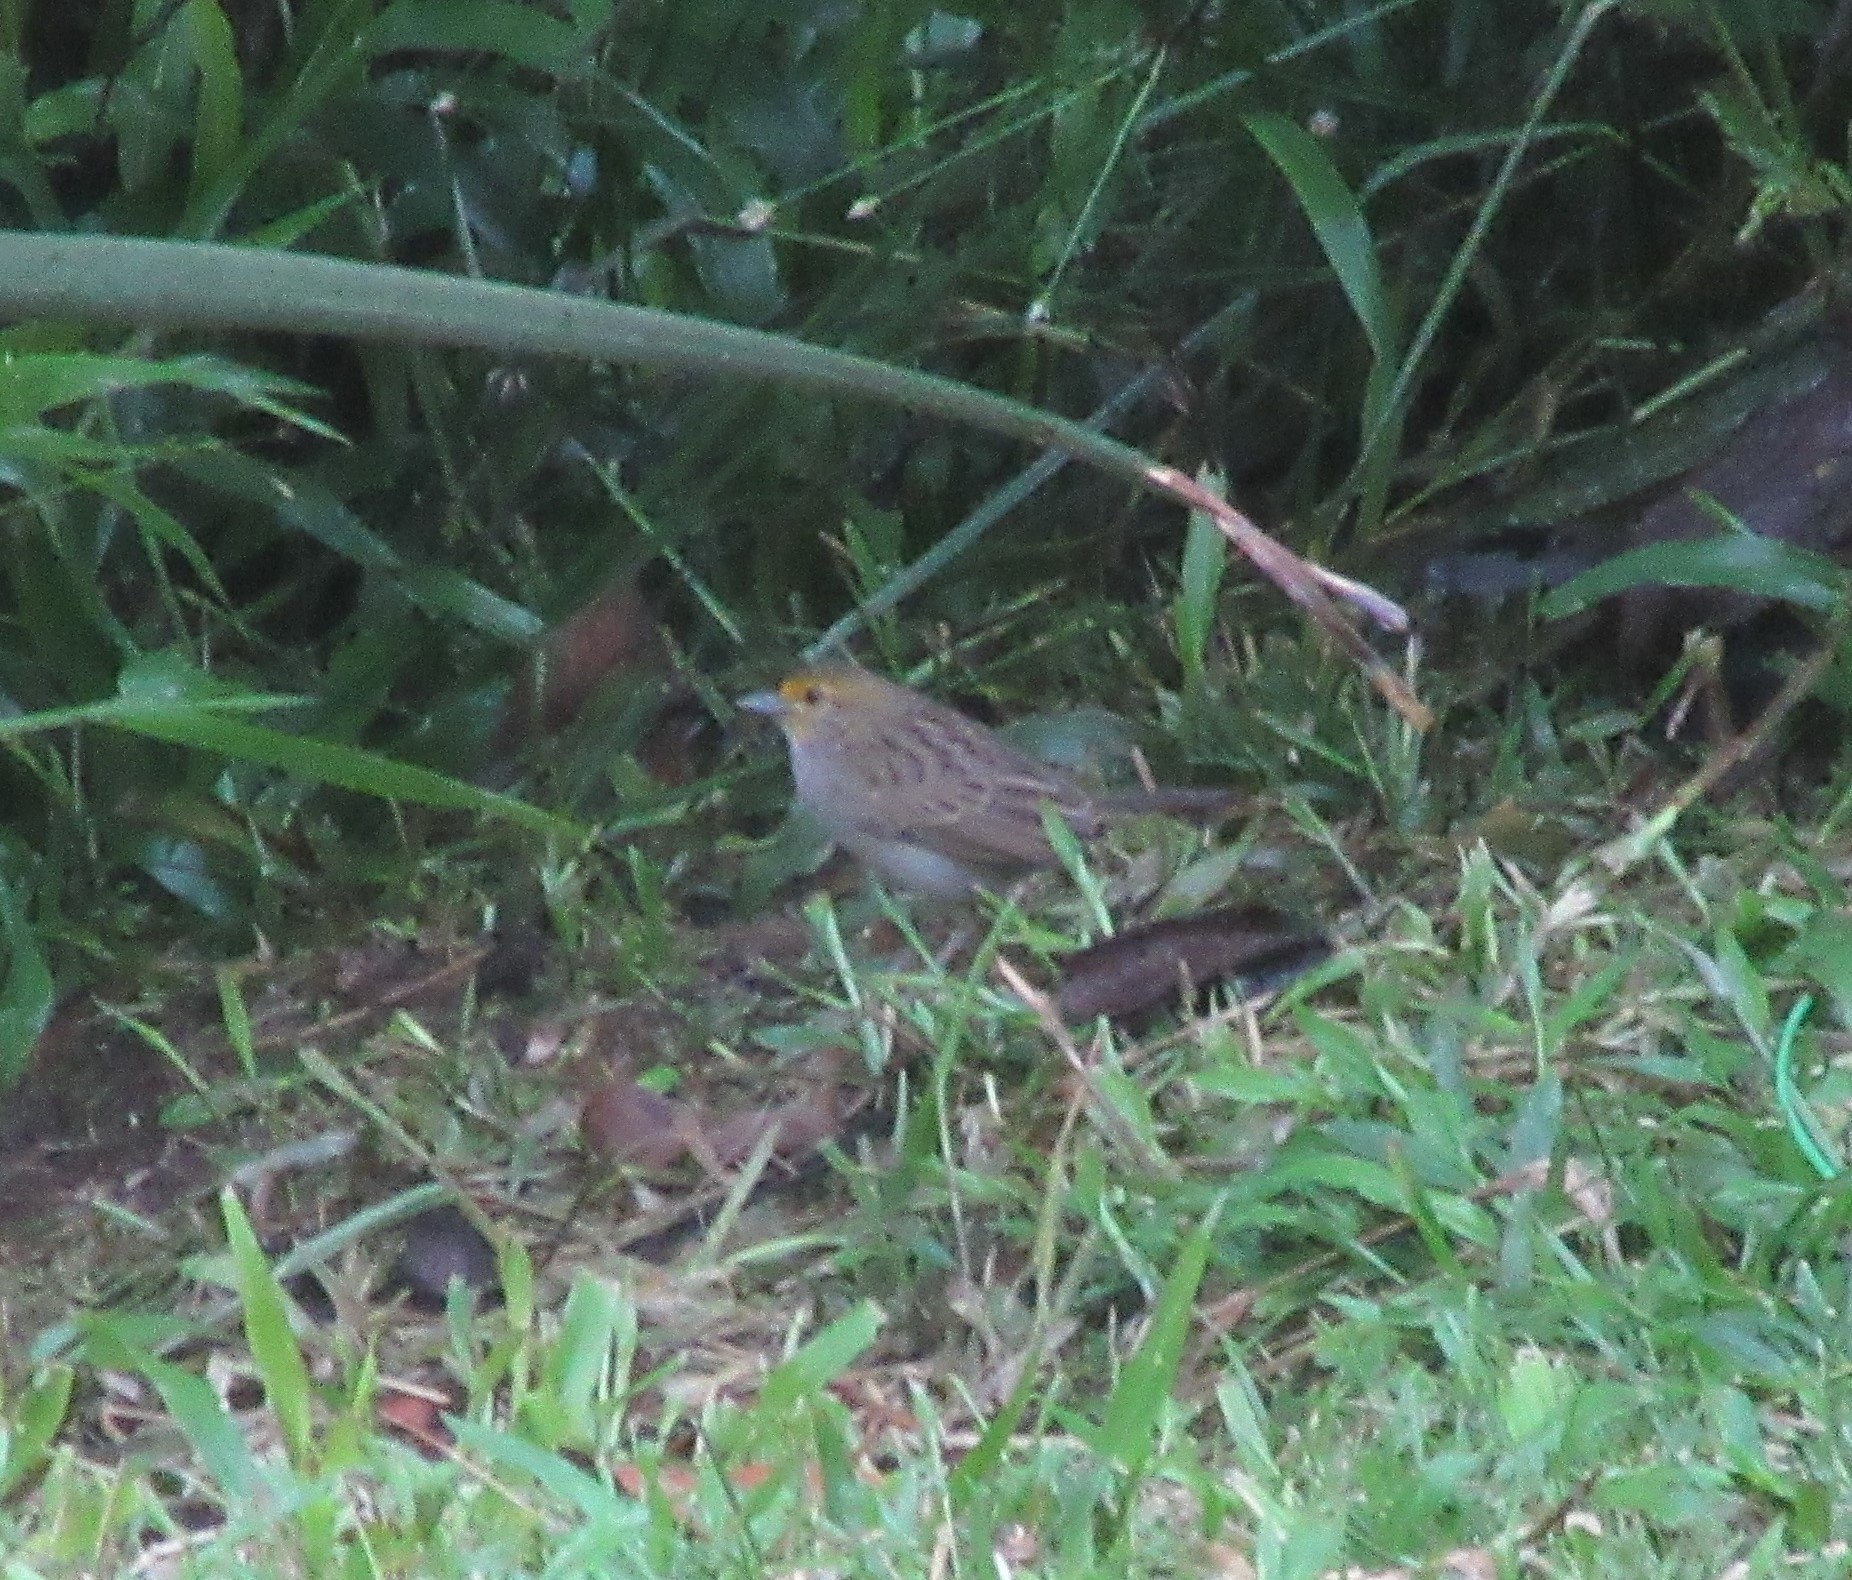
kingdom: Animalia
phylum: Chordata
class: Aves
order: Passeriformes
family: Passerellidae
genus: Ammodramus
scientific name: Ammodramus aurifrons
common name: Yellow-browed sparrow
